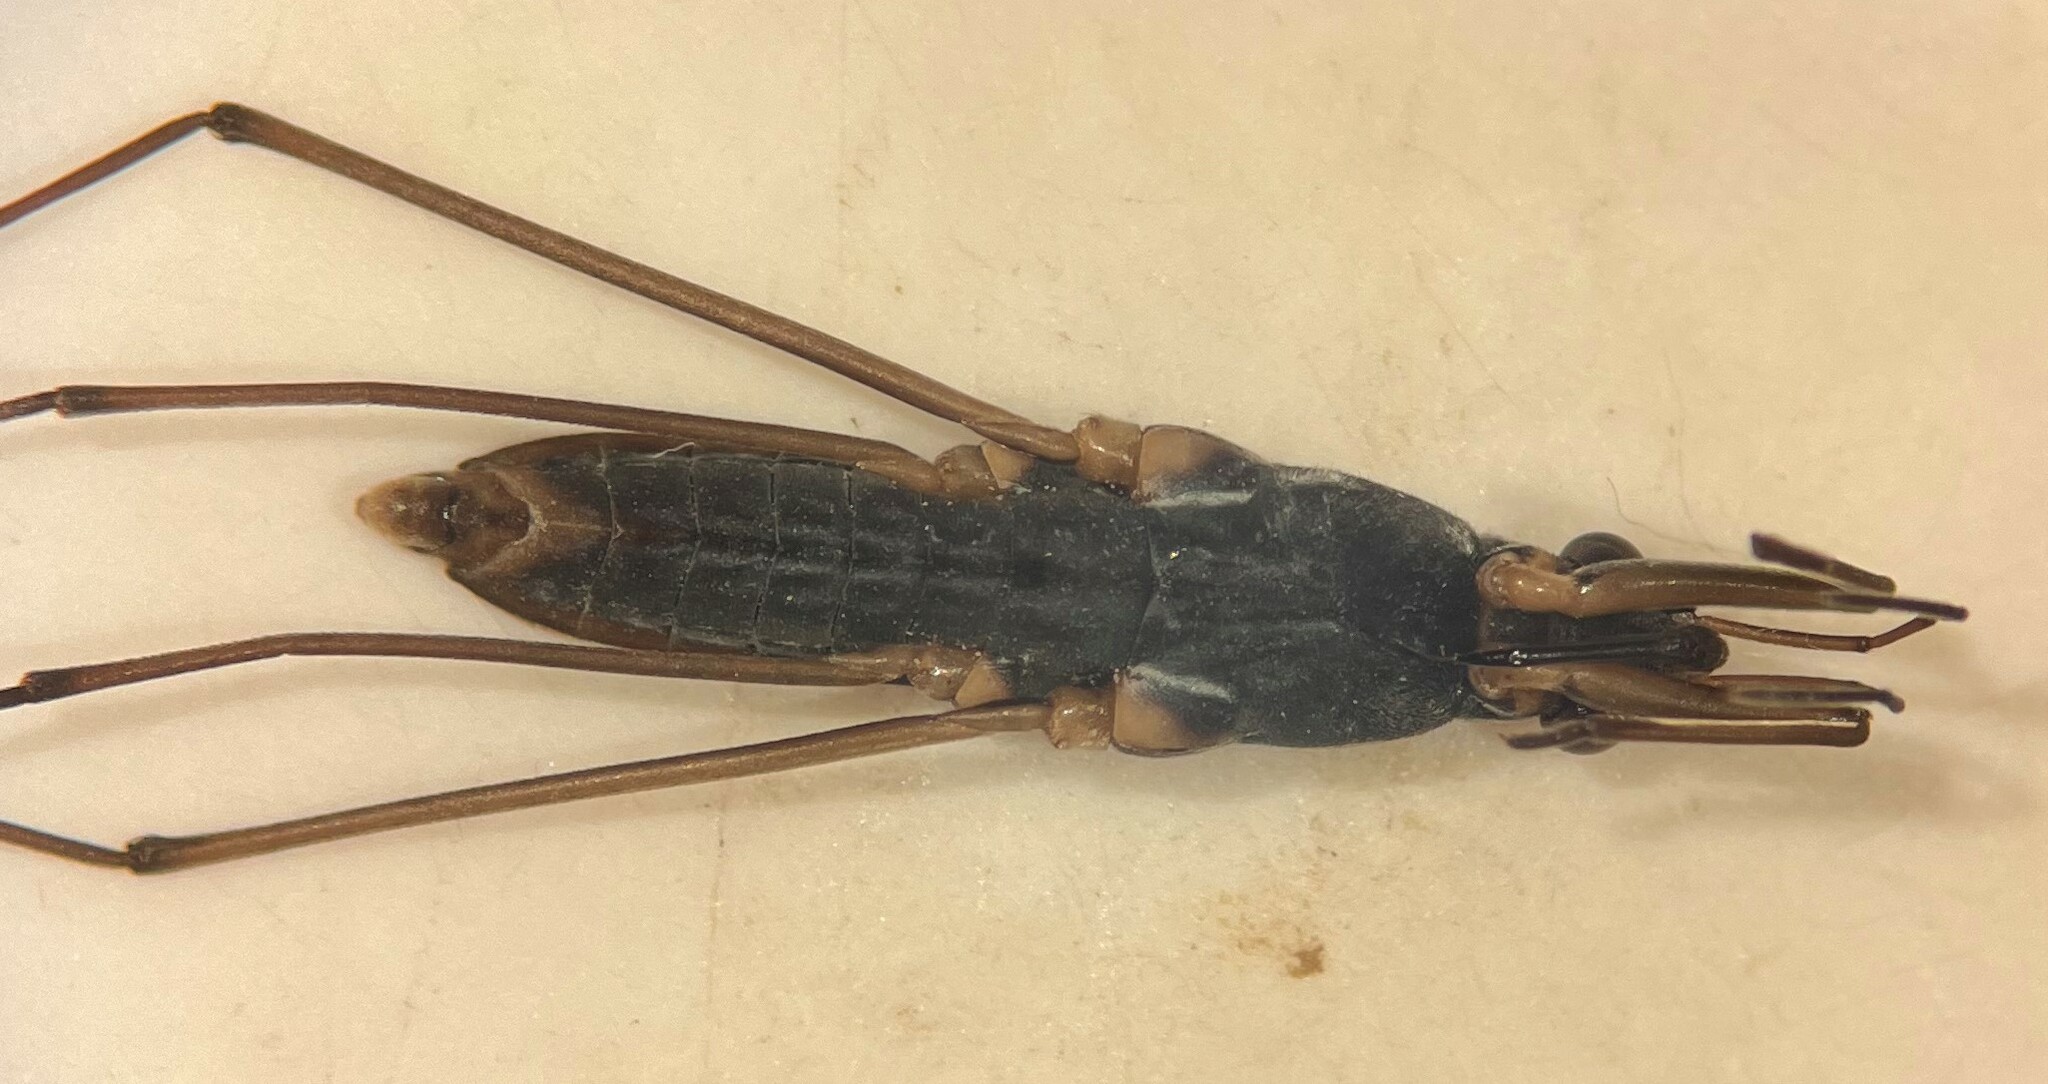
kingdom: Animalia
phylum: Arthropoda
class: Insecta
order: Hemiptera
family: Gerridae
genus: Gerris
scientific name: Gerris insperatus
